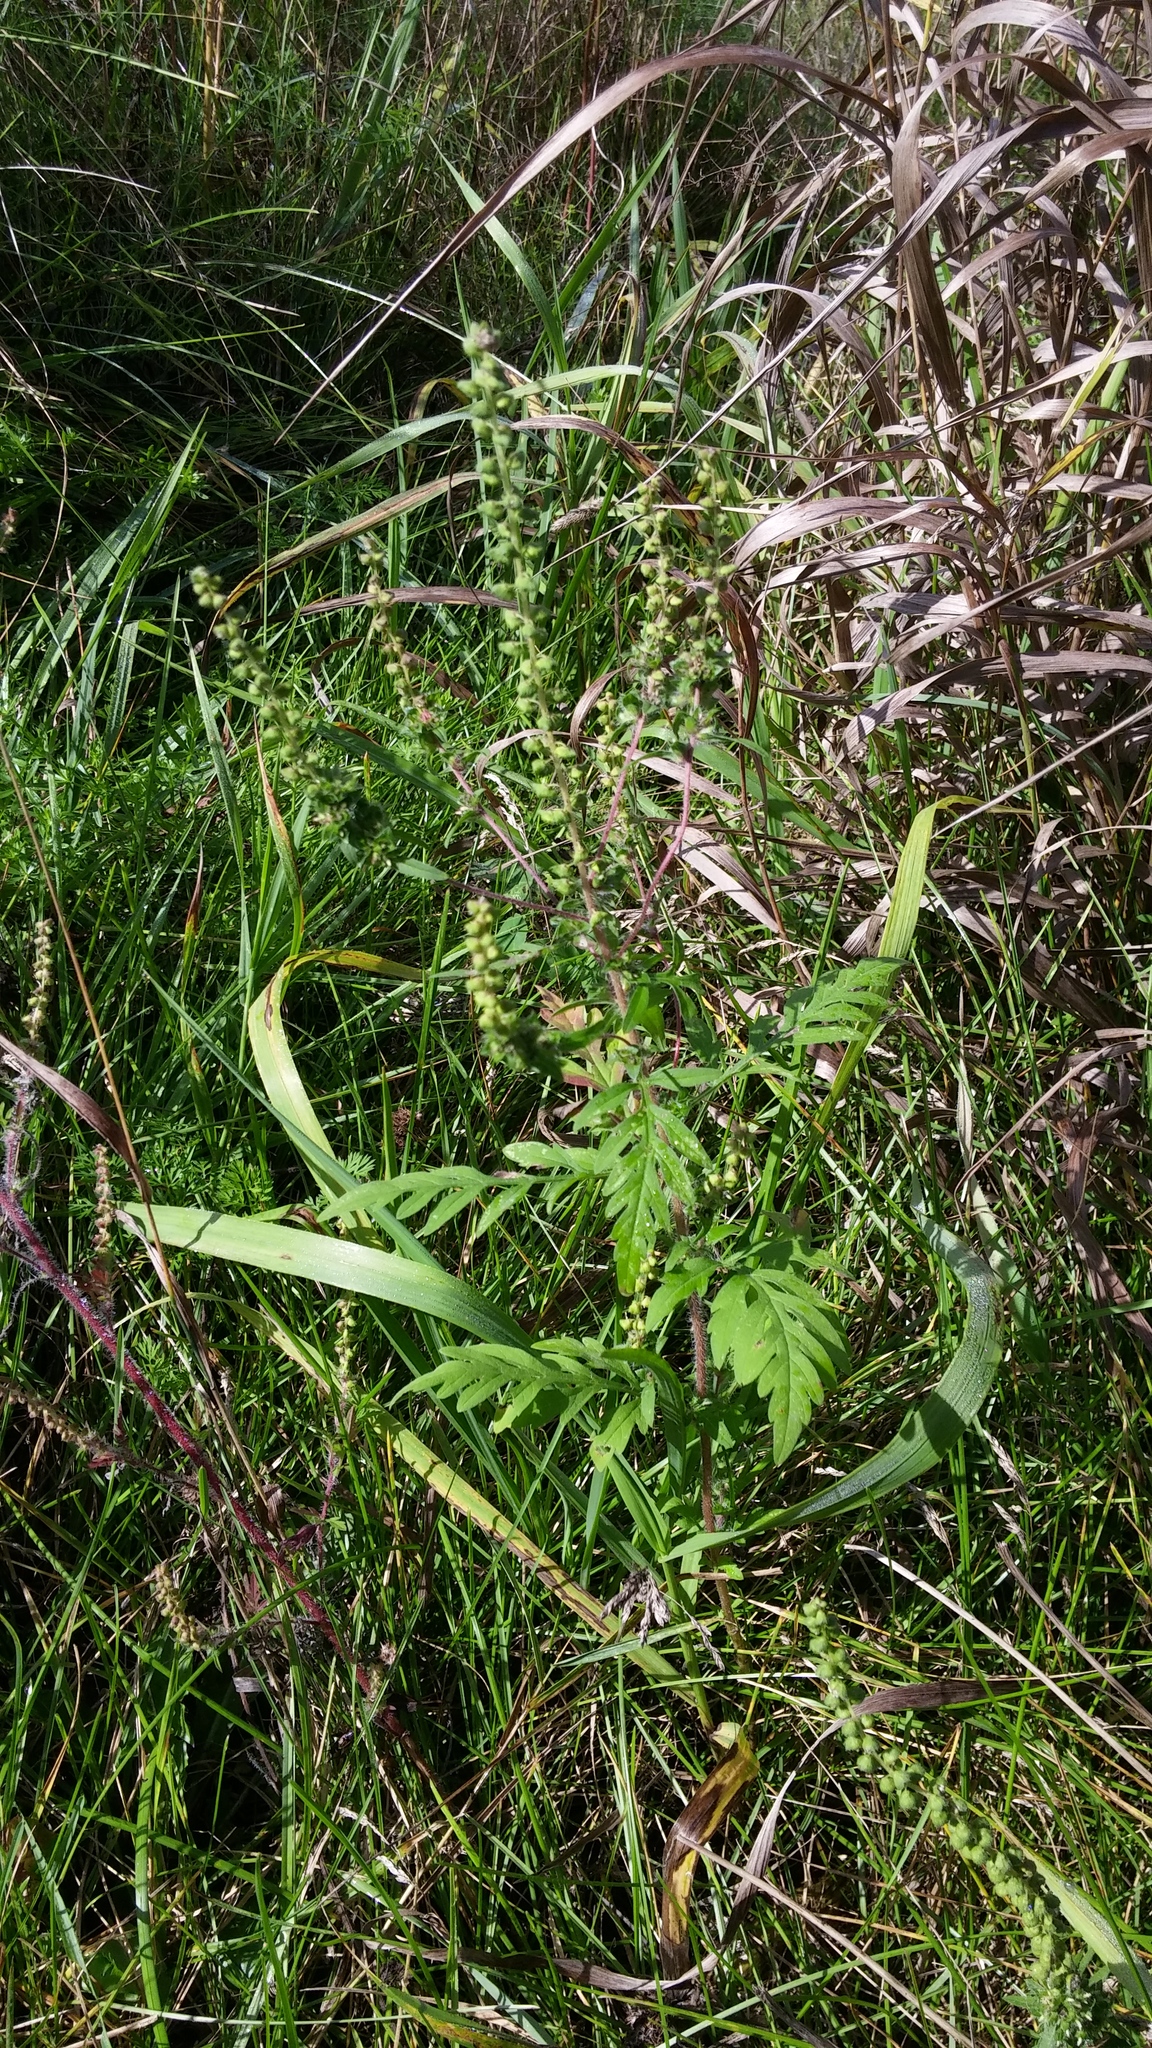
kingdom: Plantae
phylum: Tracheophyta
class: Magnoliopsida
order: Asterales
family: Asteraceae
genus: Ambrosia
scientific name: Ambrosia artemisiifolia
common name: Annual ragweed
